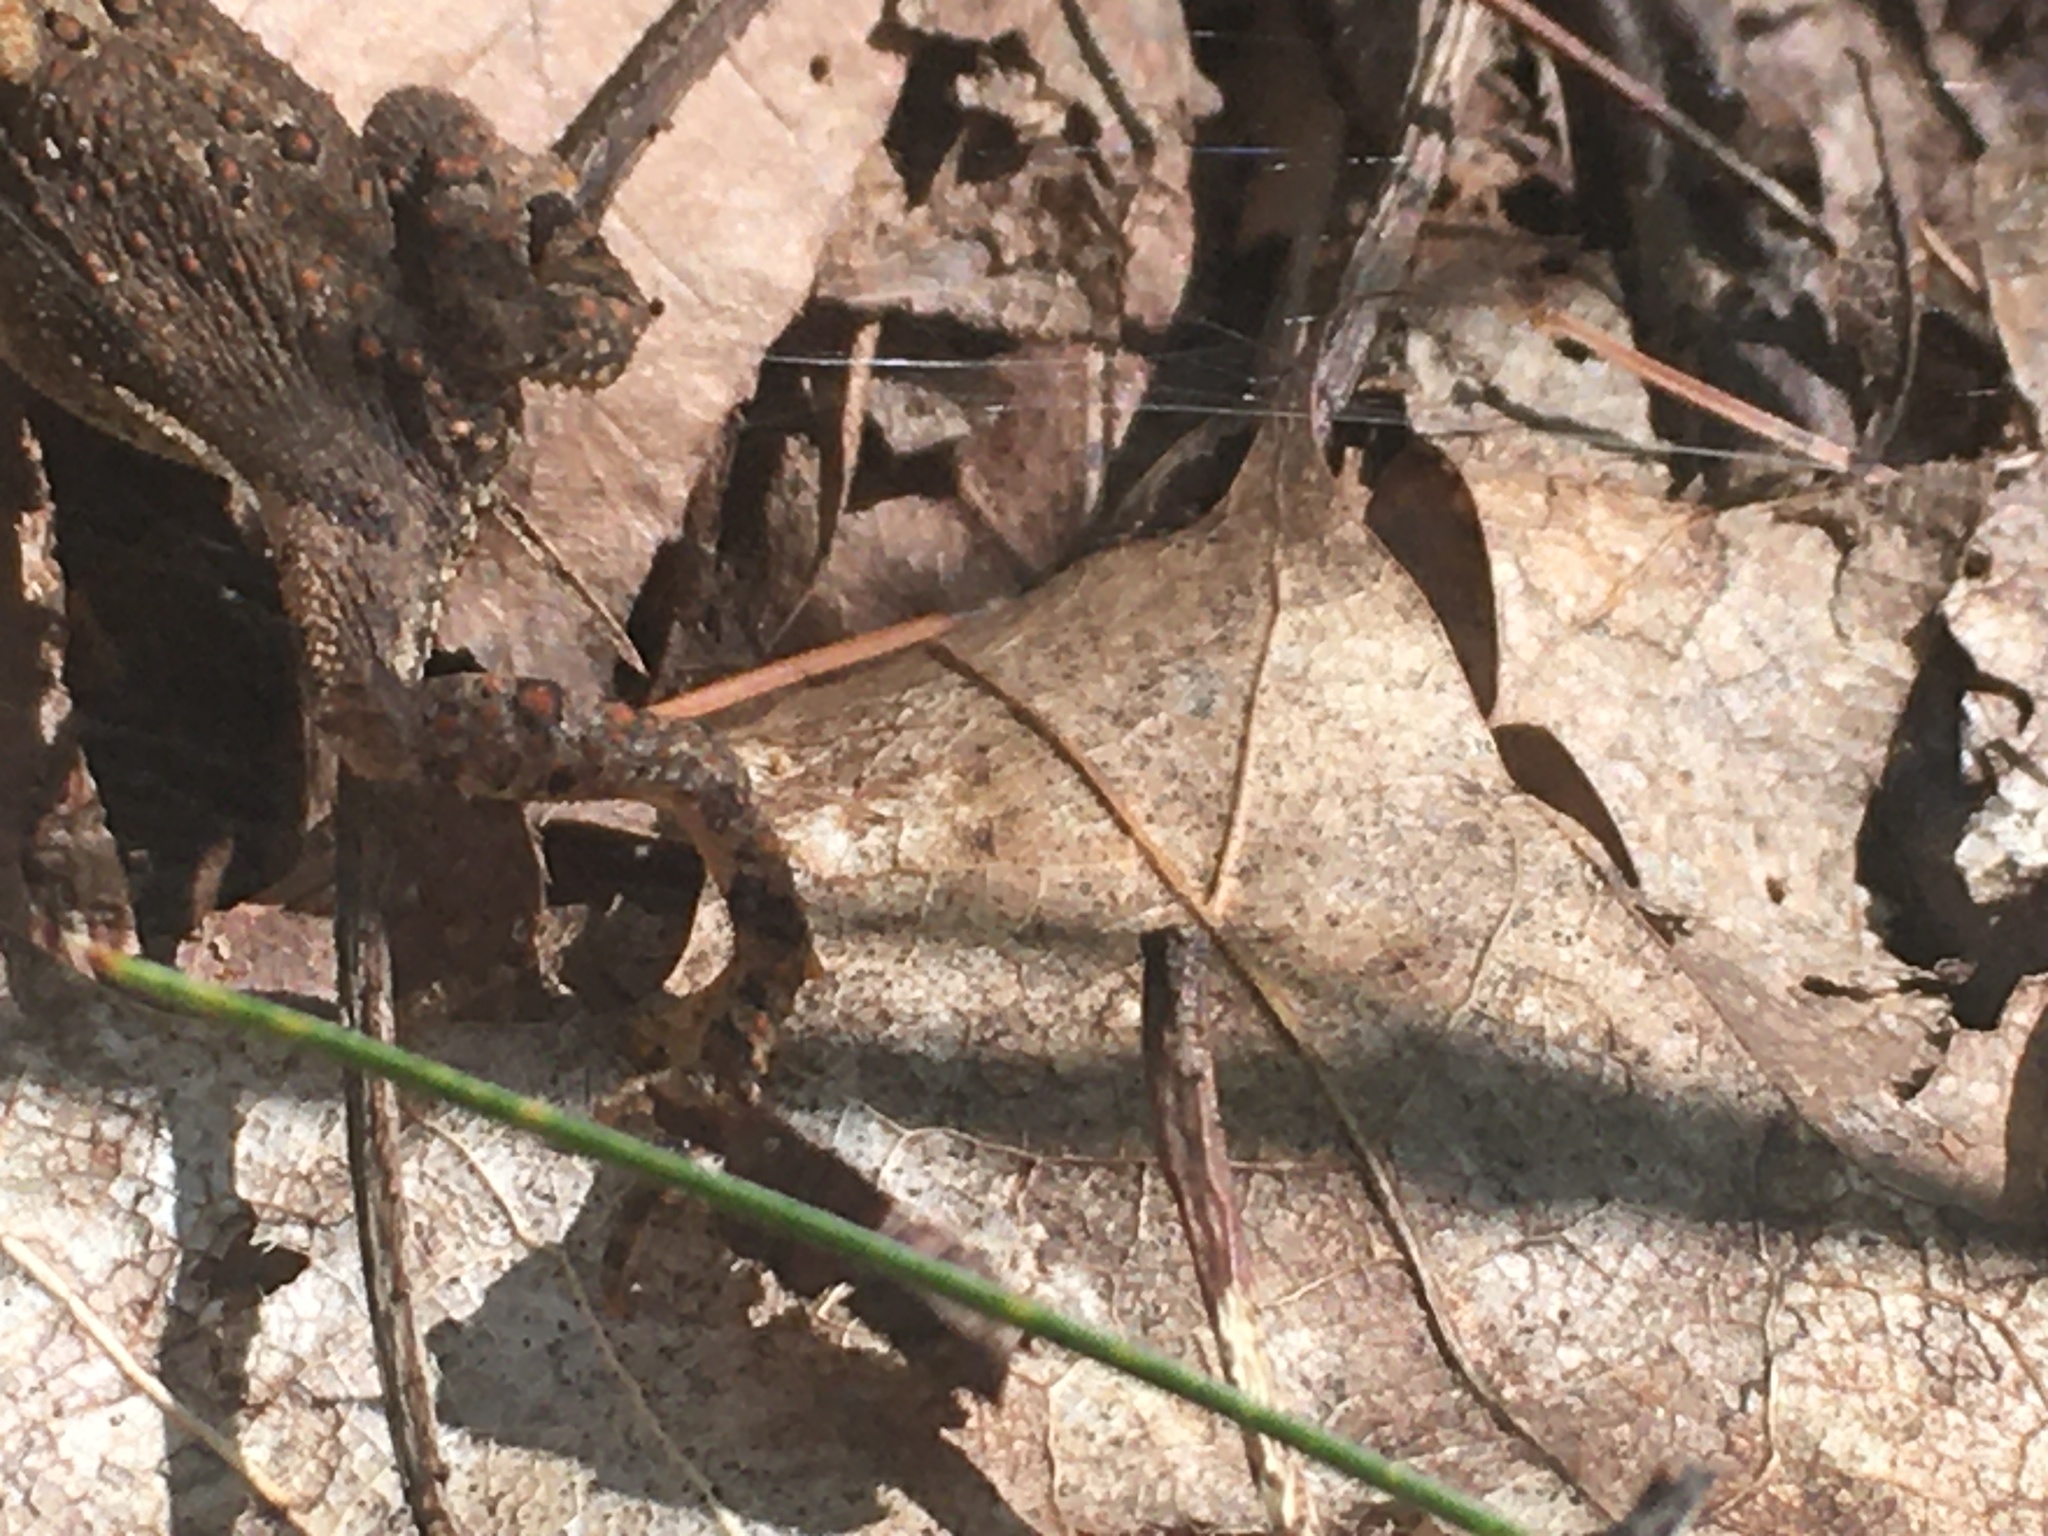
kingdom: Animalia
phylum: Chordata
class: Amphibia
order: Anura
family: Bufonidae
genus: Anaxyrus
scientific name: Anaxyrus americanus
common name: American toad
